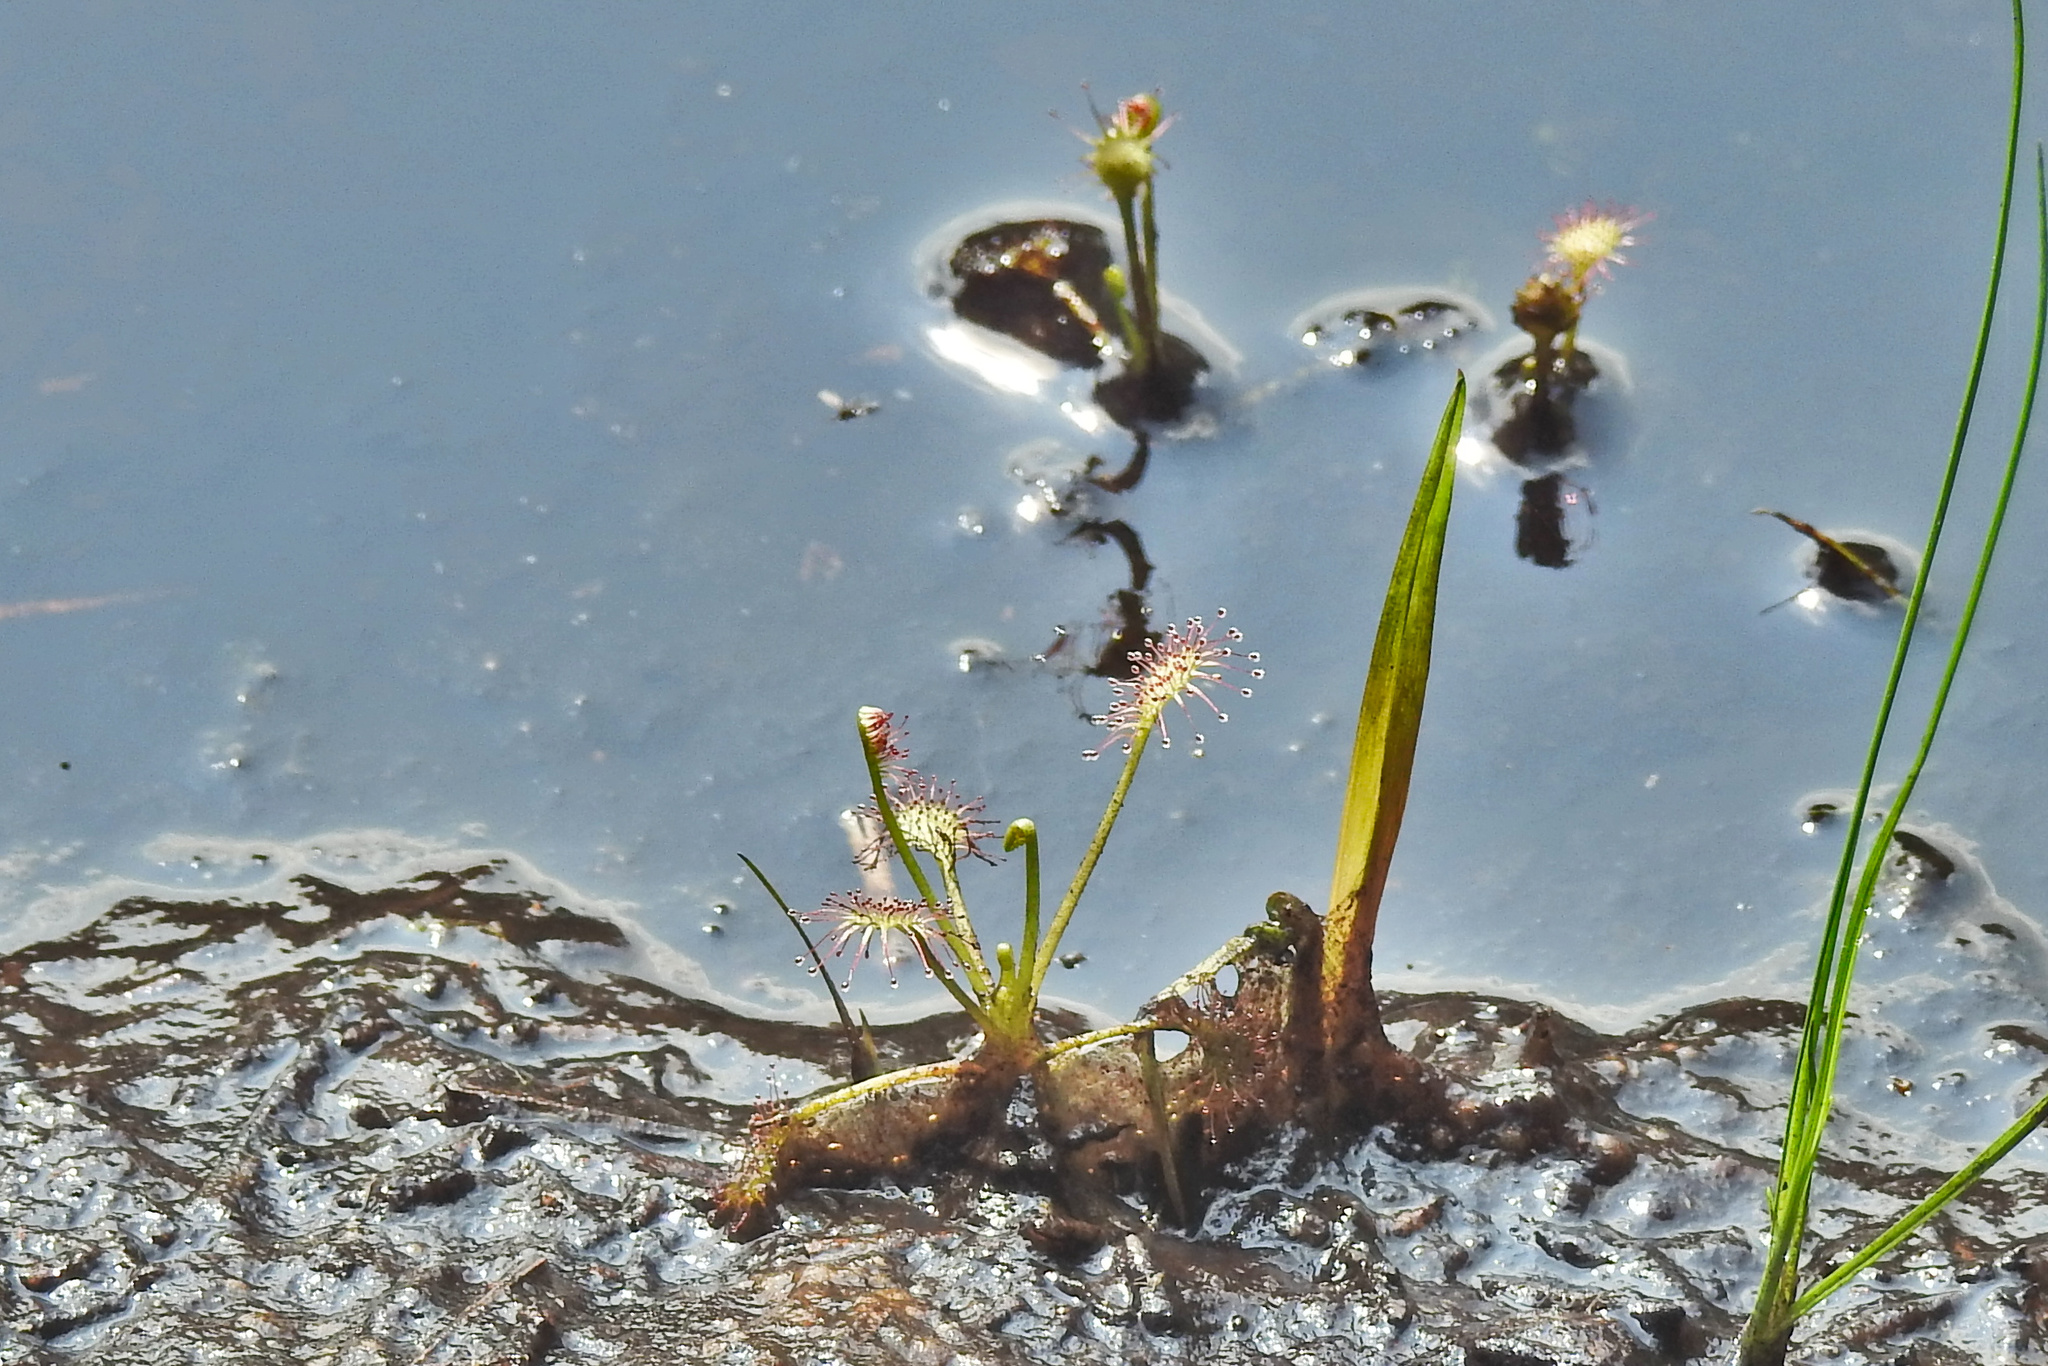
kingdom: Plantae
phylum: Tracheophyta
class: Magnoliopsida
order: Caryophyllales
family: Droseraceae
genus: Drosera
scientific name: Drosera intermedia
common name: Oblong-leaved sundew
